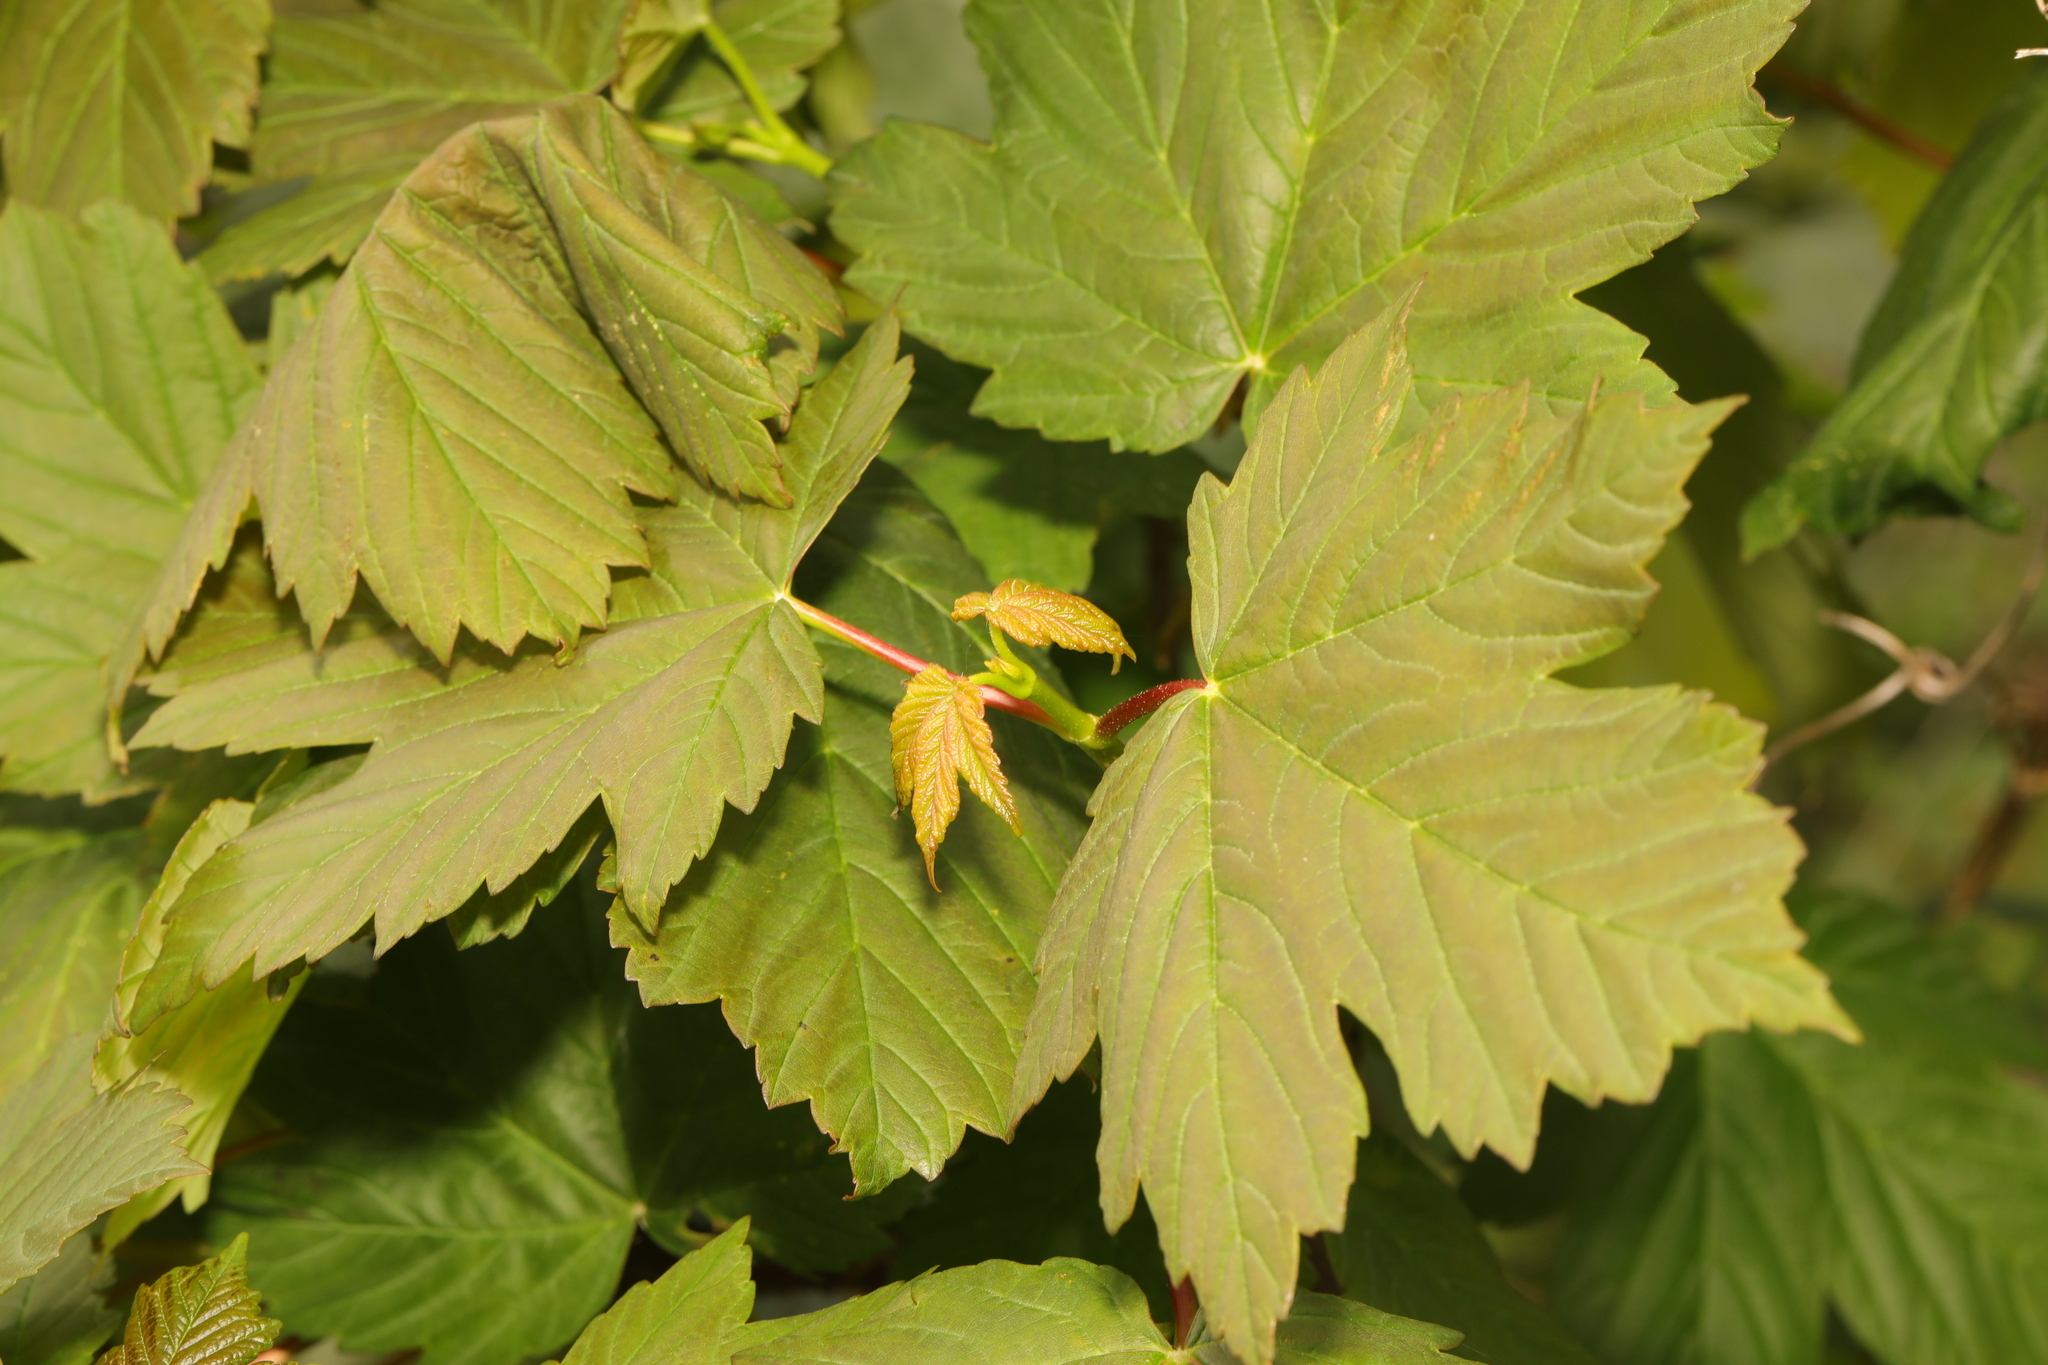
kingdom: Plantae
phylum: Tracheophyta
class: Magnoliopsida
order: Sapindales
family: Sapindaceae
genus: Acer
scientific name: Acer pseudoplatanus
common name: Sycamore
